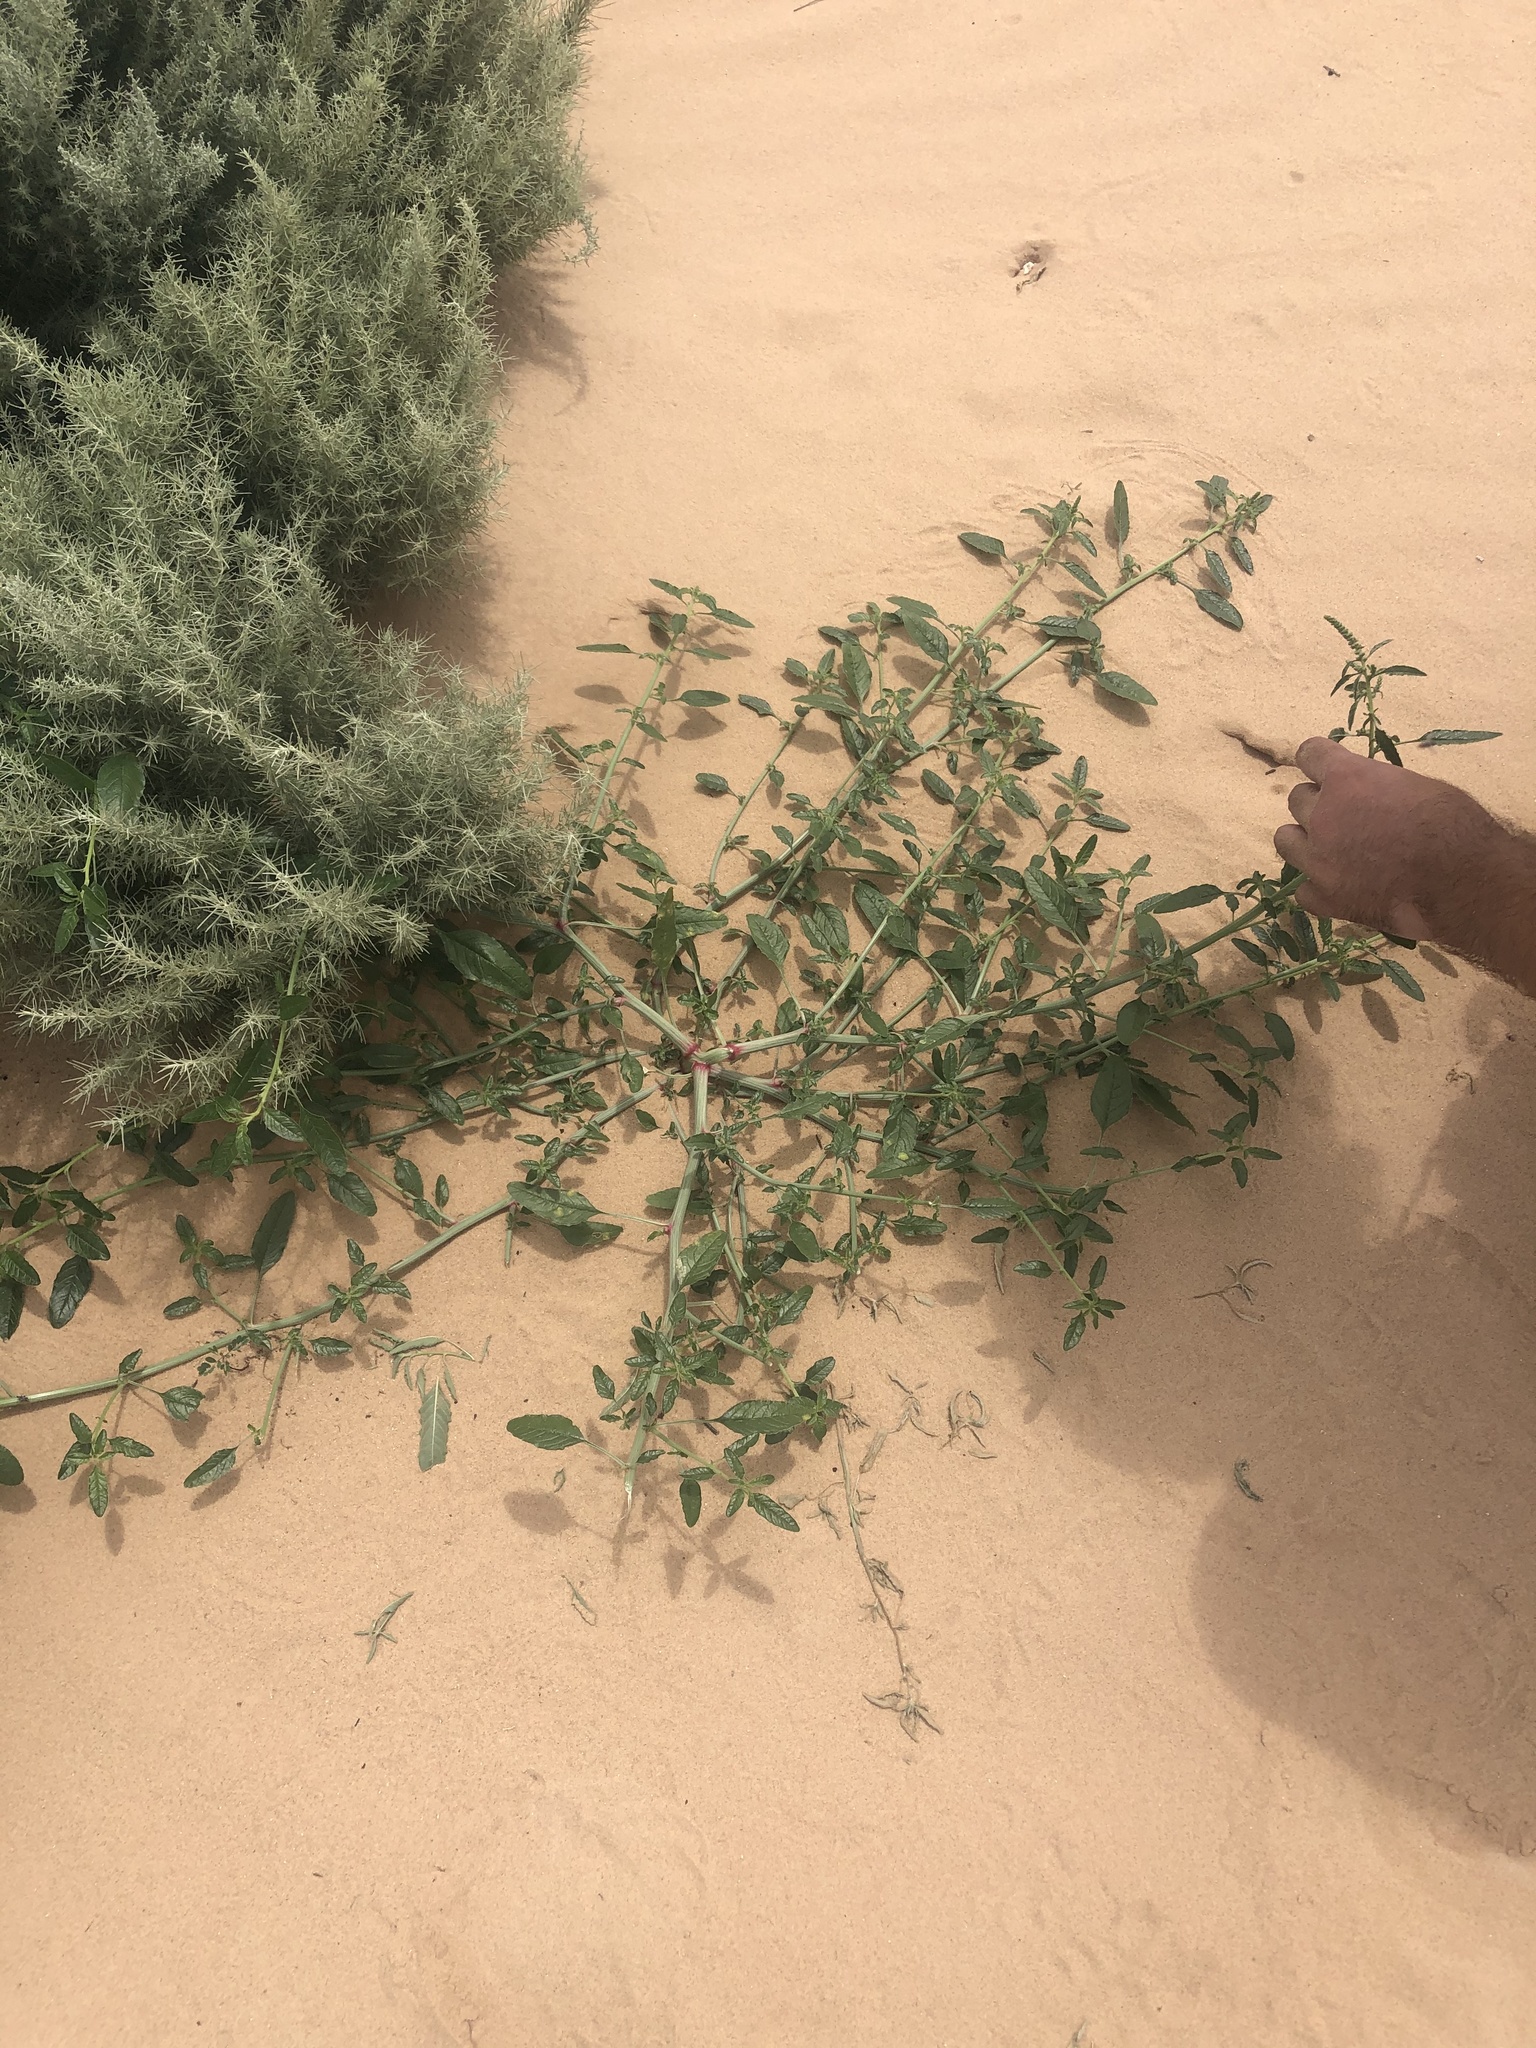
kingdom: Plantae
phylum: Tracheophyta
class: Magnoliopsida
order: Caryophyllales
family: Amaranthaceae
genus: Amaranthus
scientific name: Amaranthus arenicola
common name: Sandhills amaranth
